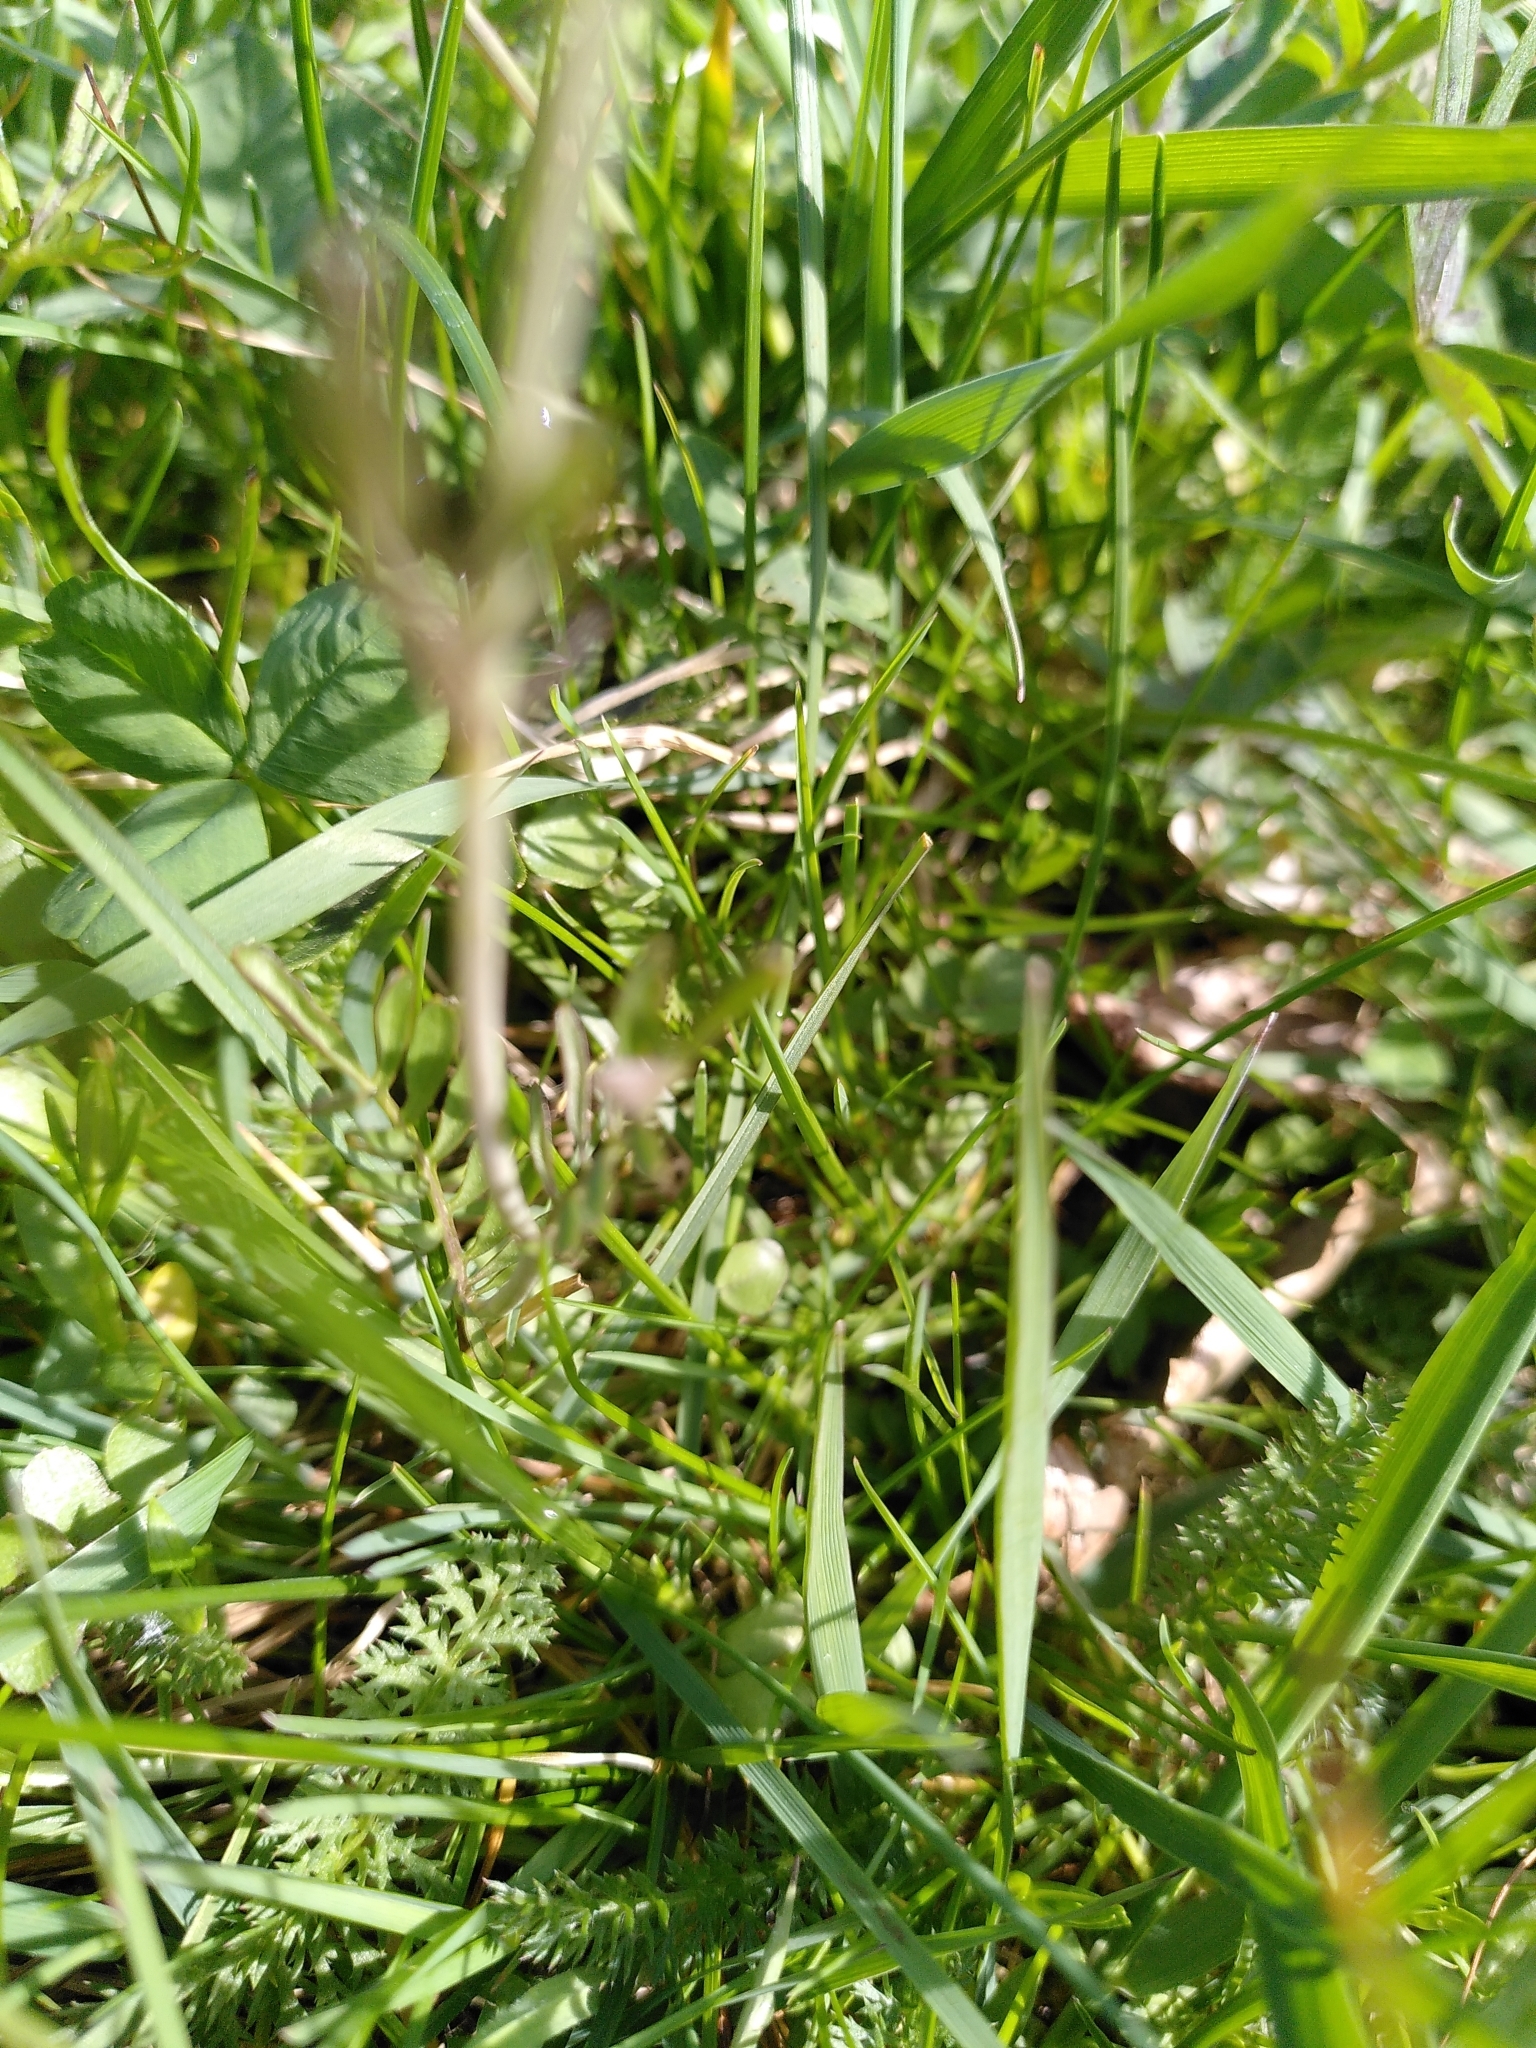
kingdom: Plantae
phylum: Tracheophyta
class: Magnoliopsida
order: Brassicales
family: Brassicaceae
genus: Cardamine
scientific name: Cardamine pratensis
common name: Cuckoo flower
